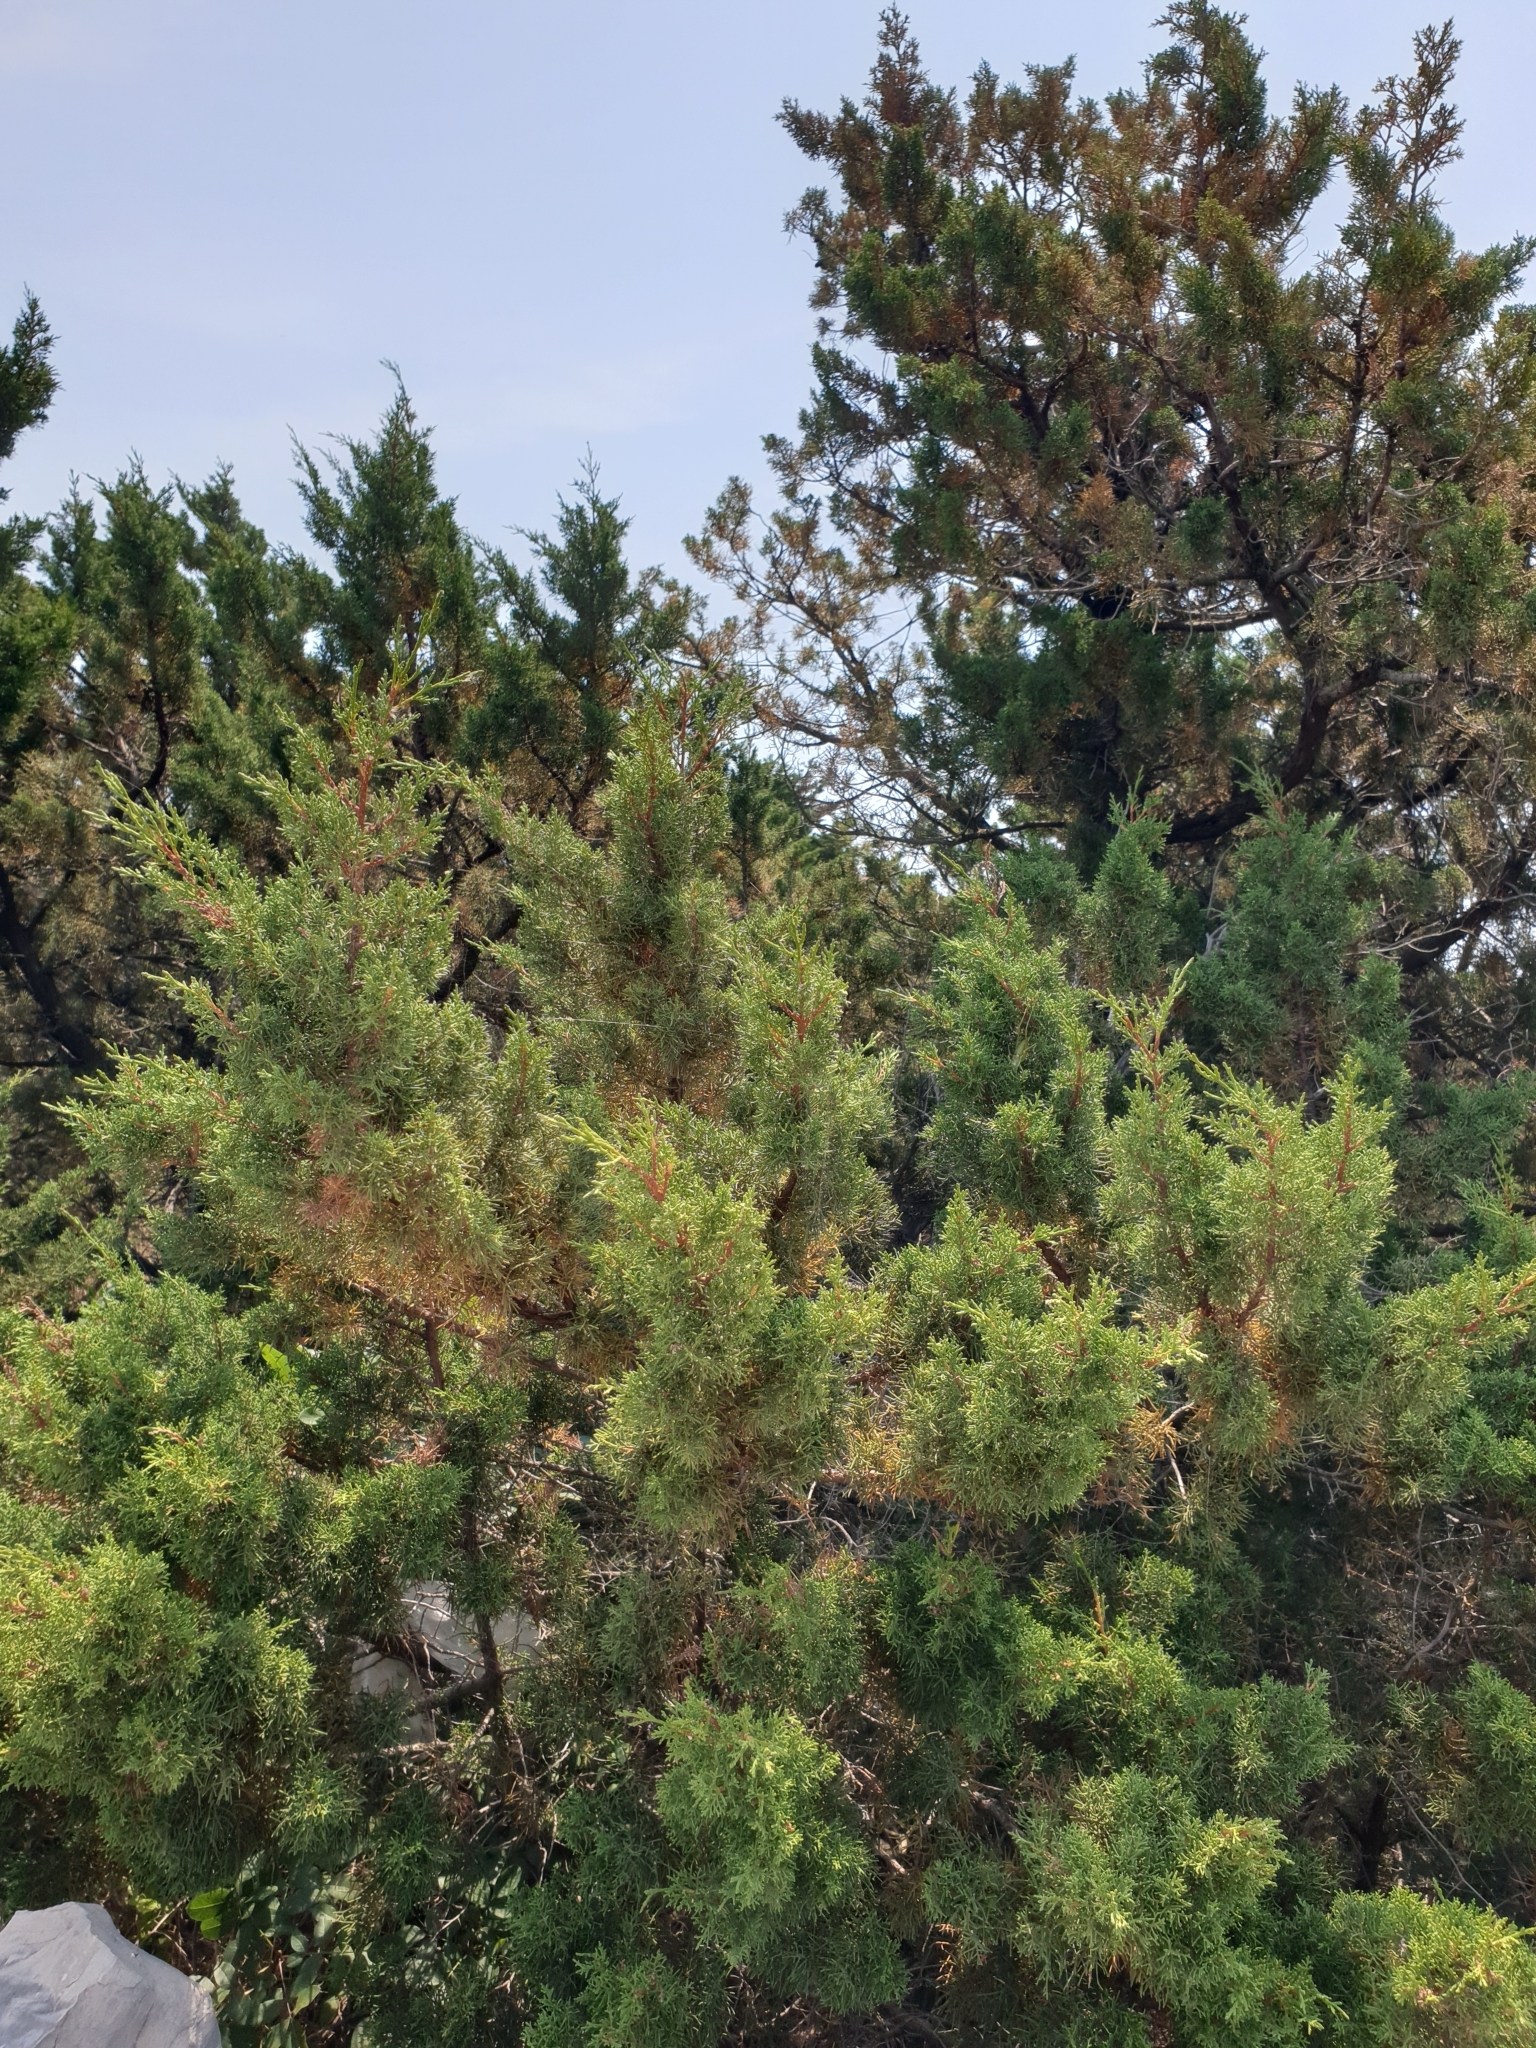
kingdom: Plantae
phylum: Tracheophyta
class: Pinopsida
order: Pinales
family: Cupressaceae
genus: Cupressus
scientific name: Cupressus sempervirens
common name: Italian cypress
